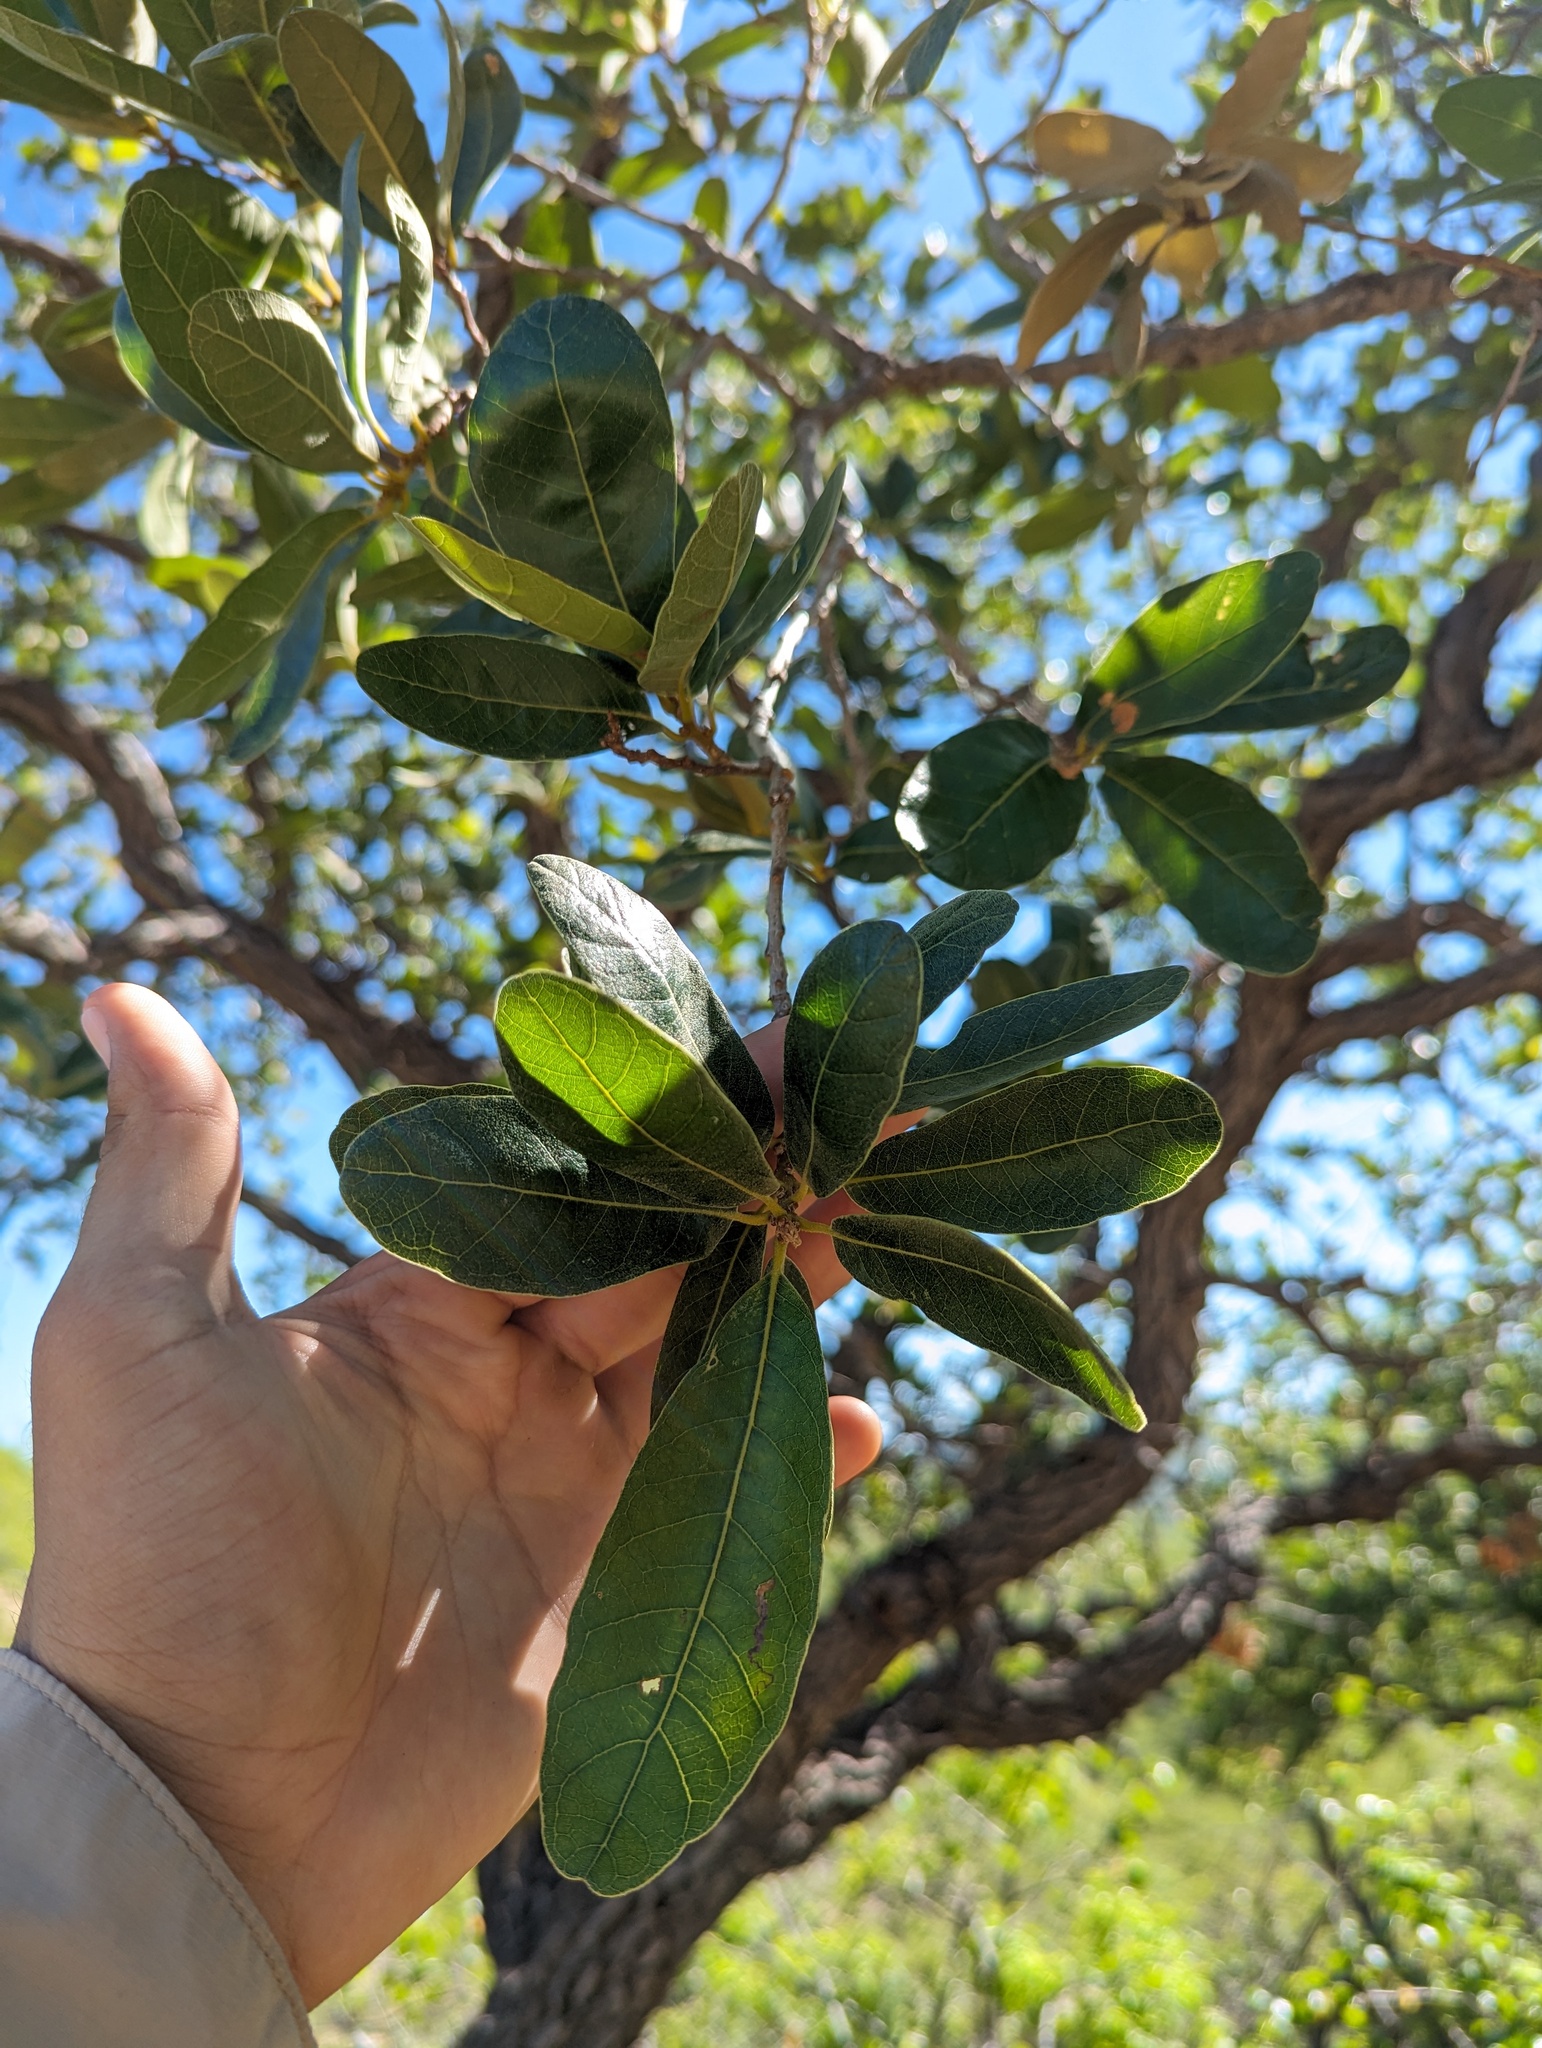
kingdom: Plantae
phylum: Tracheophyta
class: Magnoliopsida
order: Fagales
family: Fagaceae
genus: Quercus
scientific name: Quercus tuberculata
